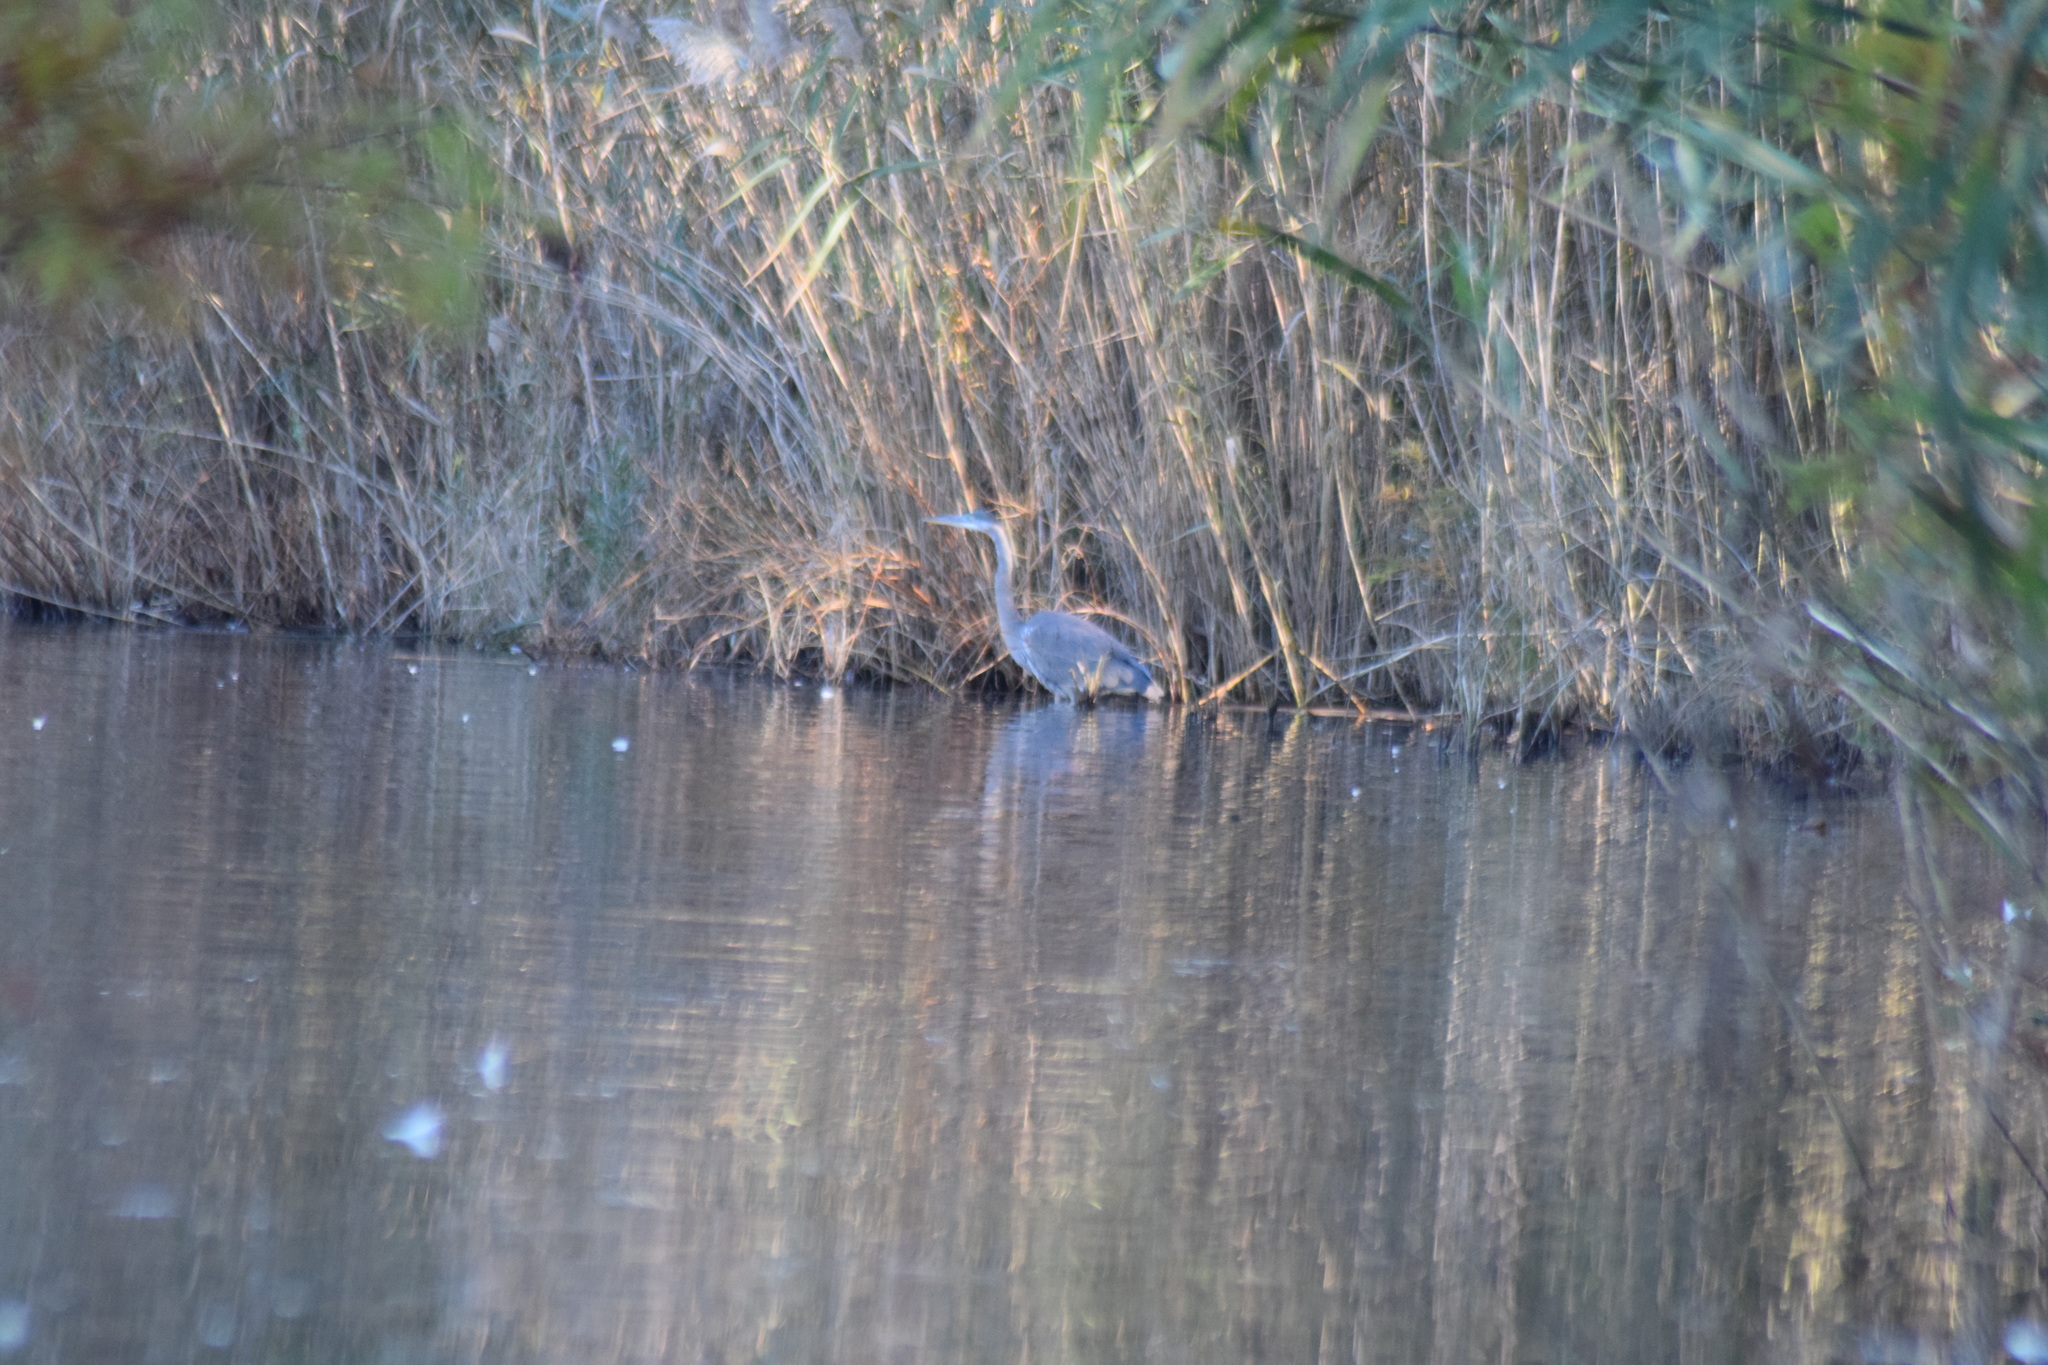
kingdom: Animalia
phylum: Chordata
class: Aves
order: Pelecaniformes
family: Ardeidae
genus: Ardea
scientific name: Ardea herodias
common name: Great blue heron
